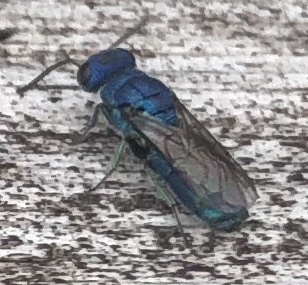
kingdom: Animalia
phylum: Arthropoda
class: Insecta
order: Hymenoptera
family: Pompilidae
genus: Pepsis
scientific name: Pepsis cyanea
